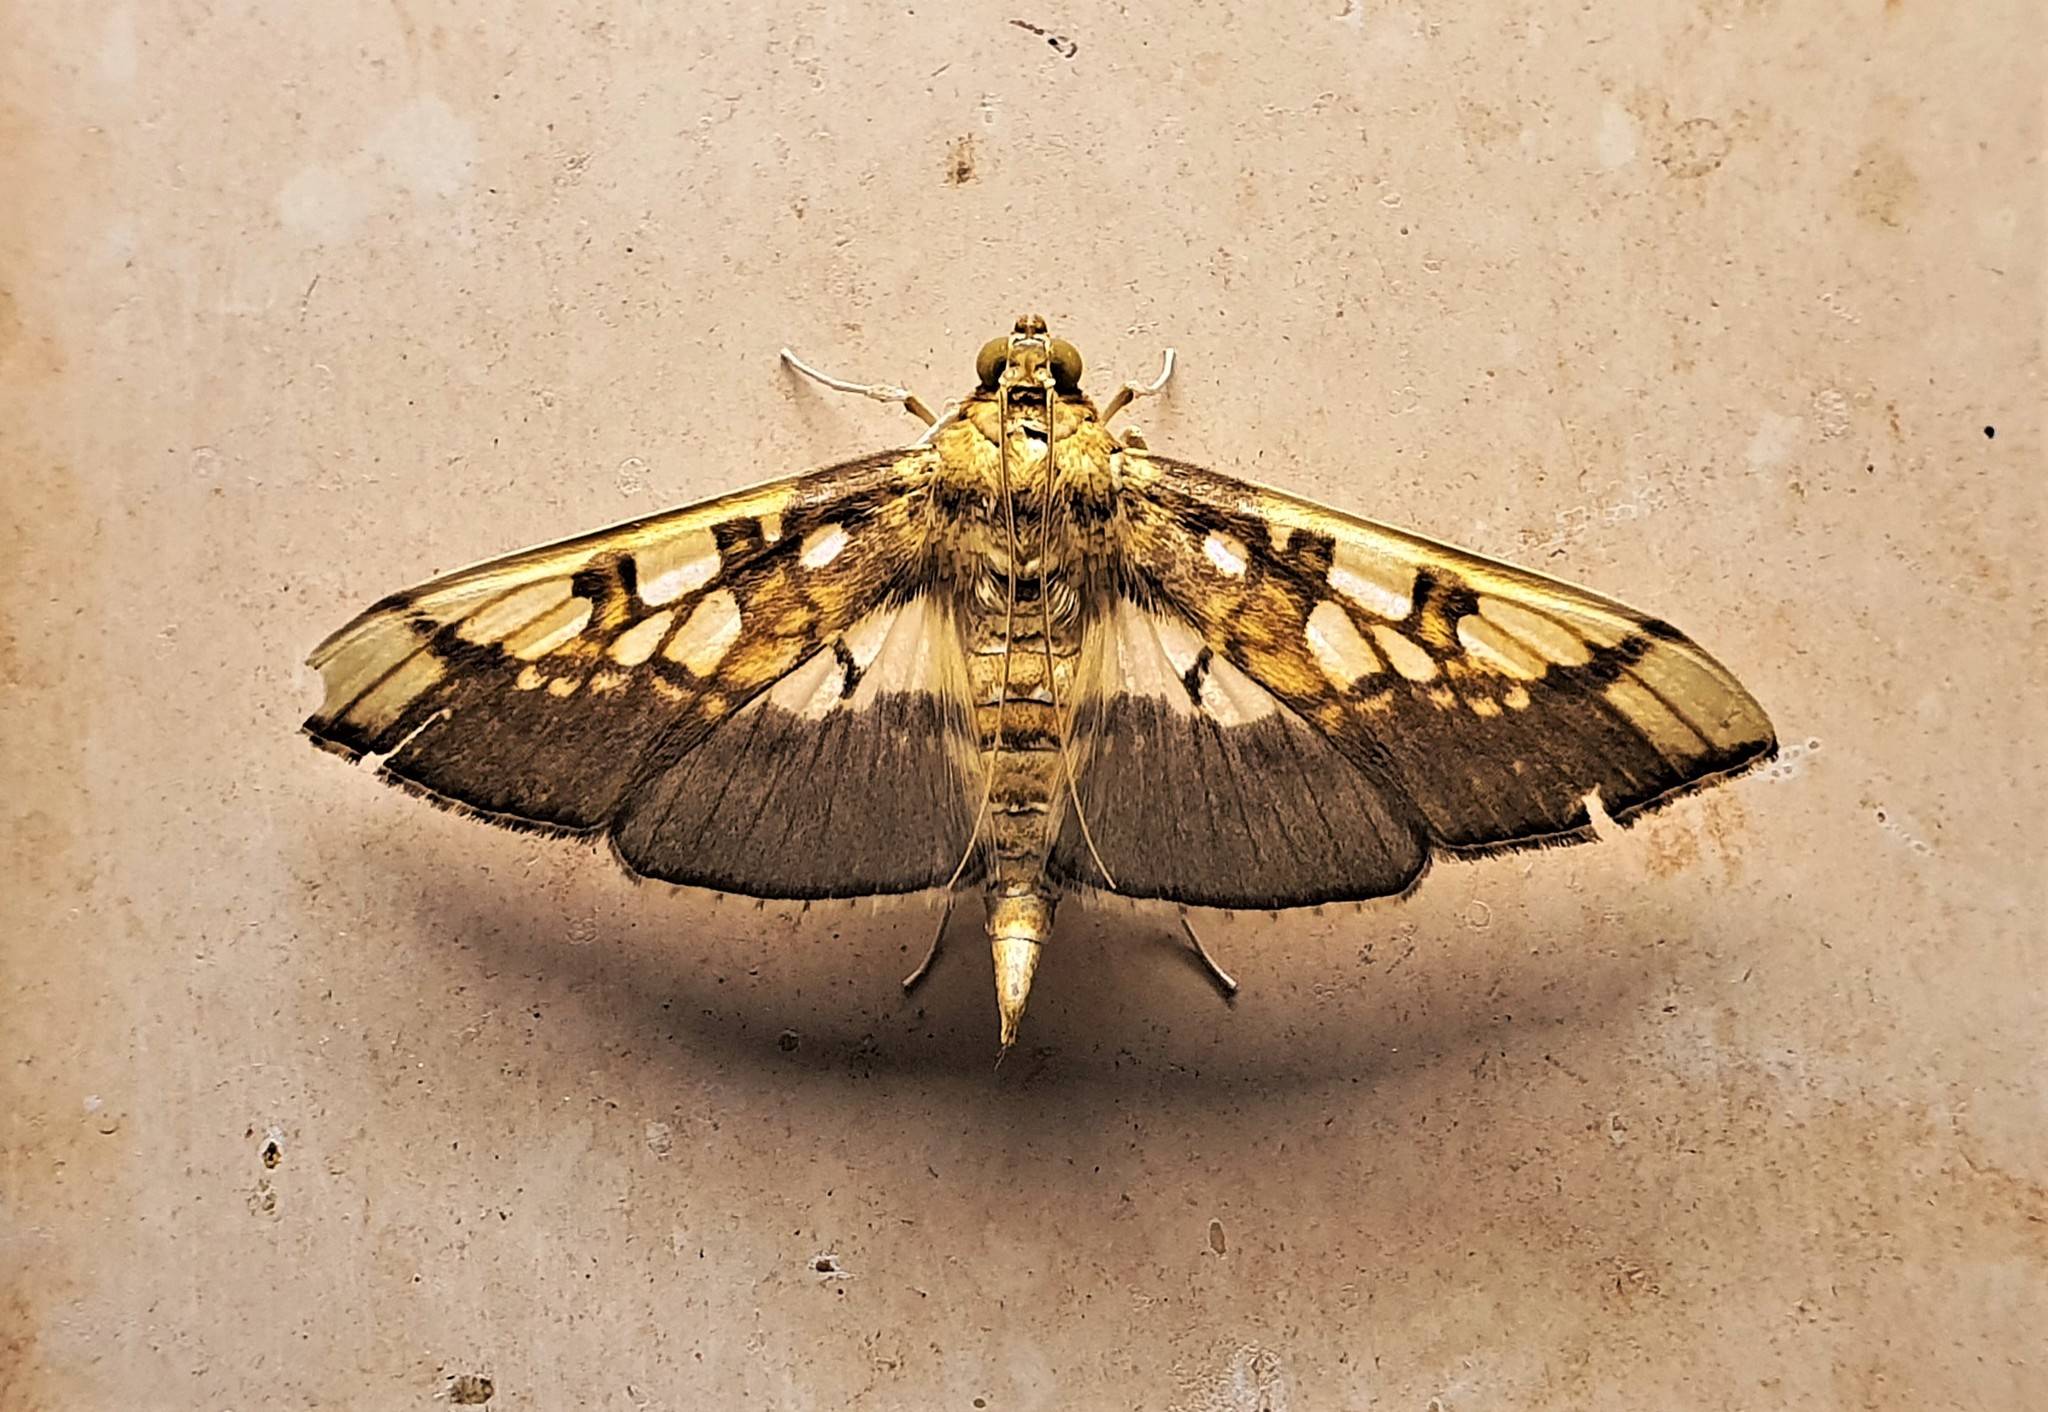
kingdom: Animalia
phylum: Arthropoda
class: Insecta
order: Lepidoptera
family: Crambidae
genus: Micromartinia
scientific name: Micromartinia mnemusalis
